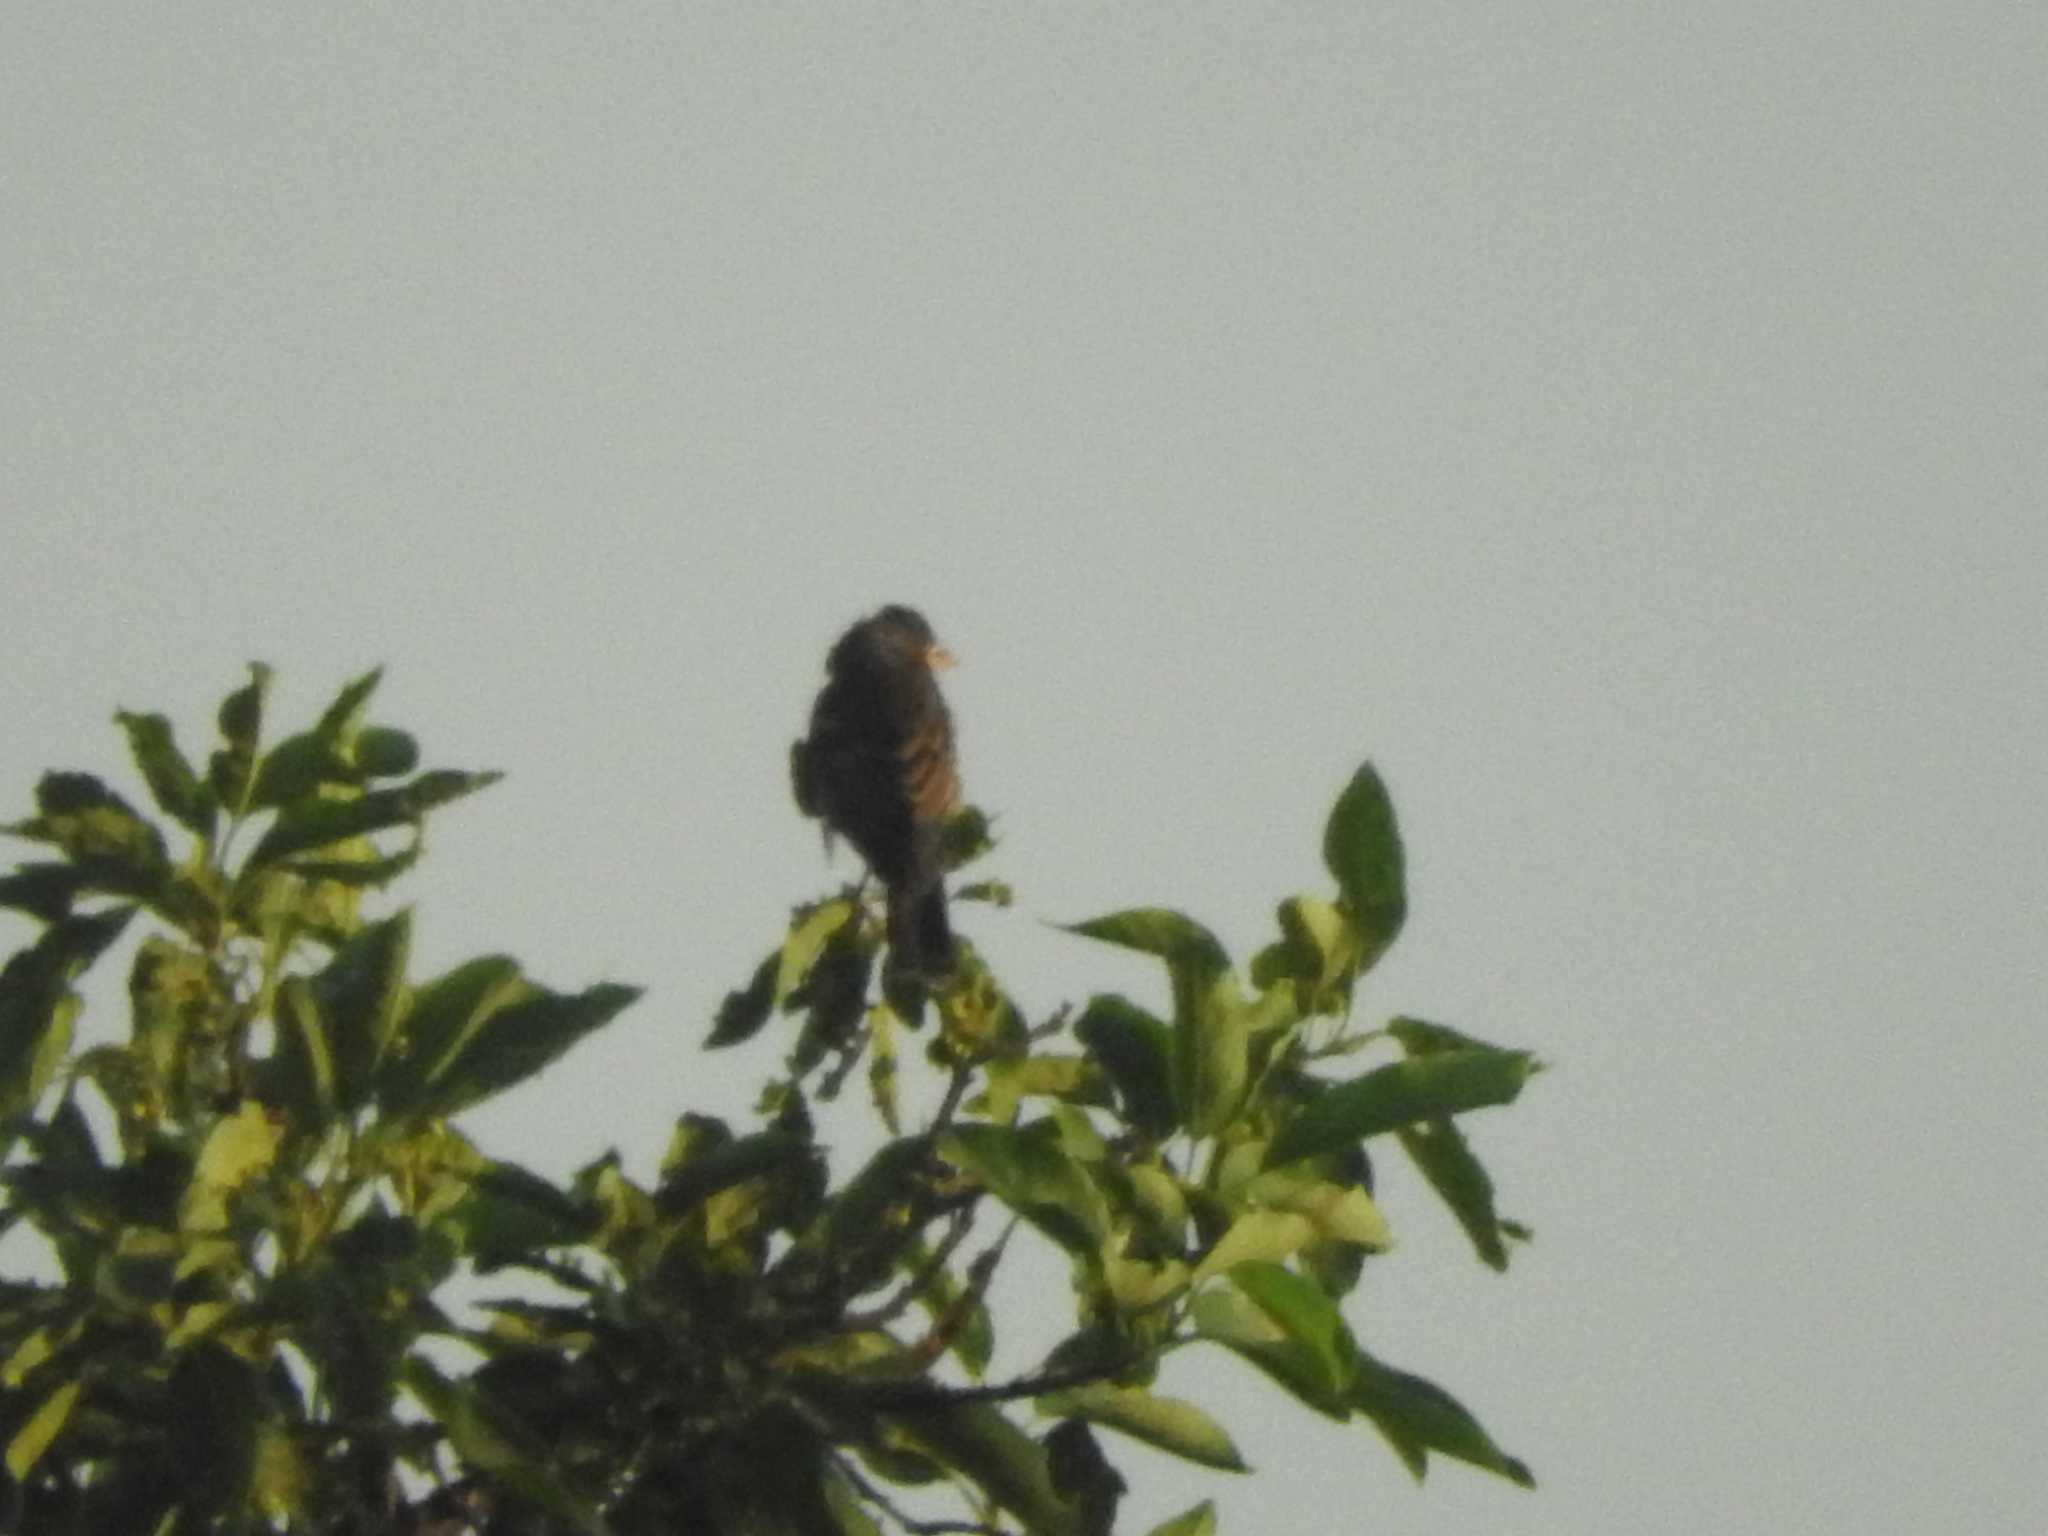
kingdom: Animalia
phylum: Chordata
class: Aves
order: Passeriformes
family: Cardinalidae
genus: Passerina
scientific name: Passerina caerulea
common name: Blue grosbeak
